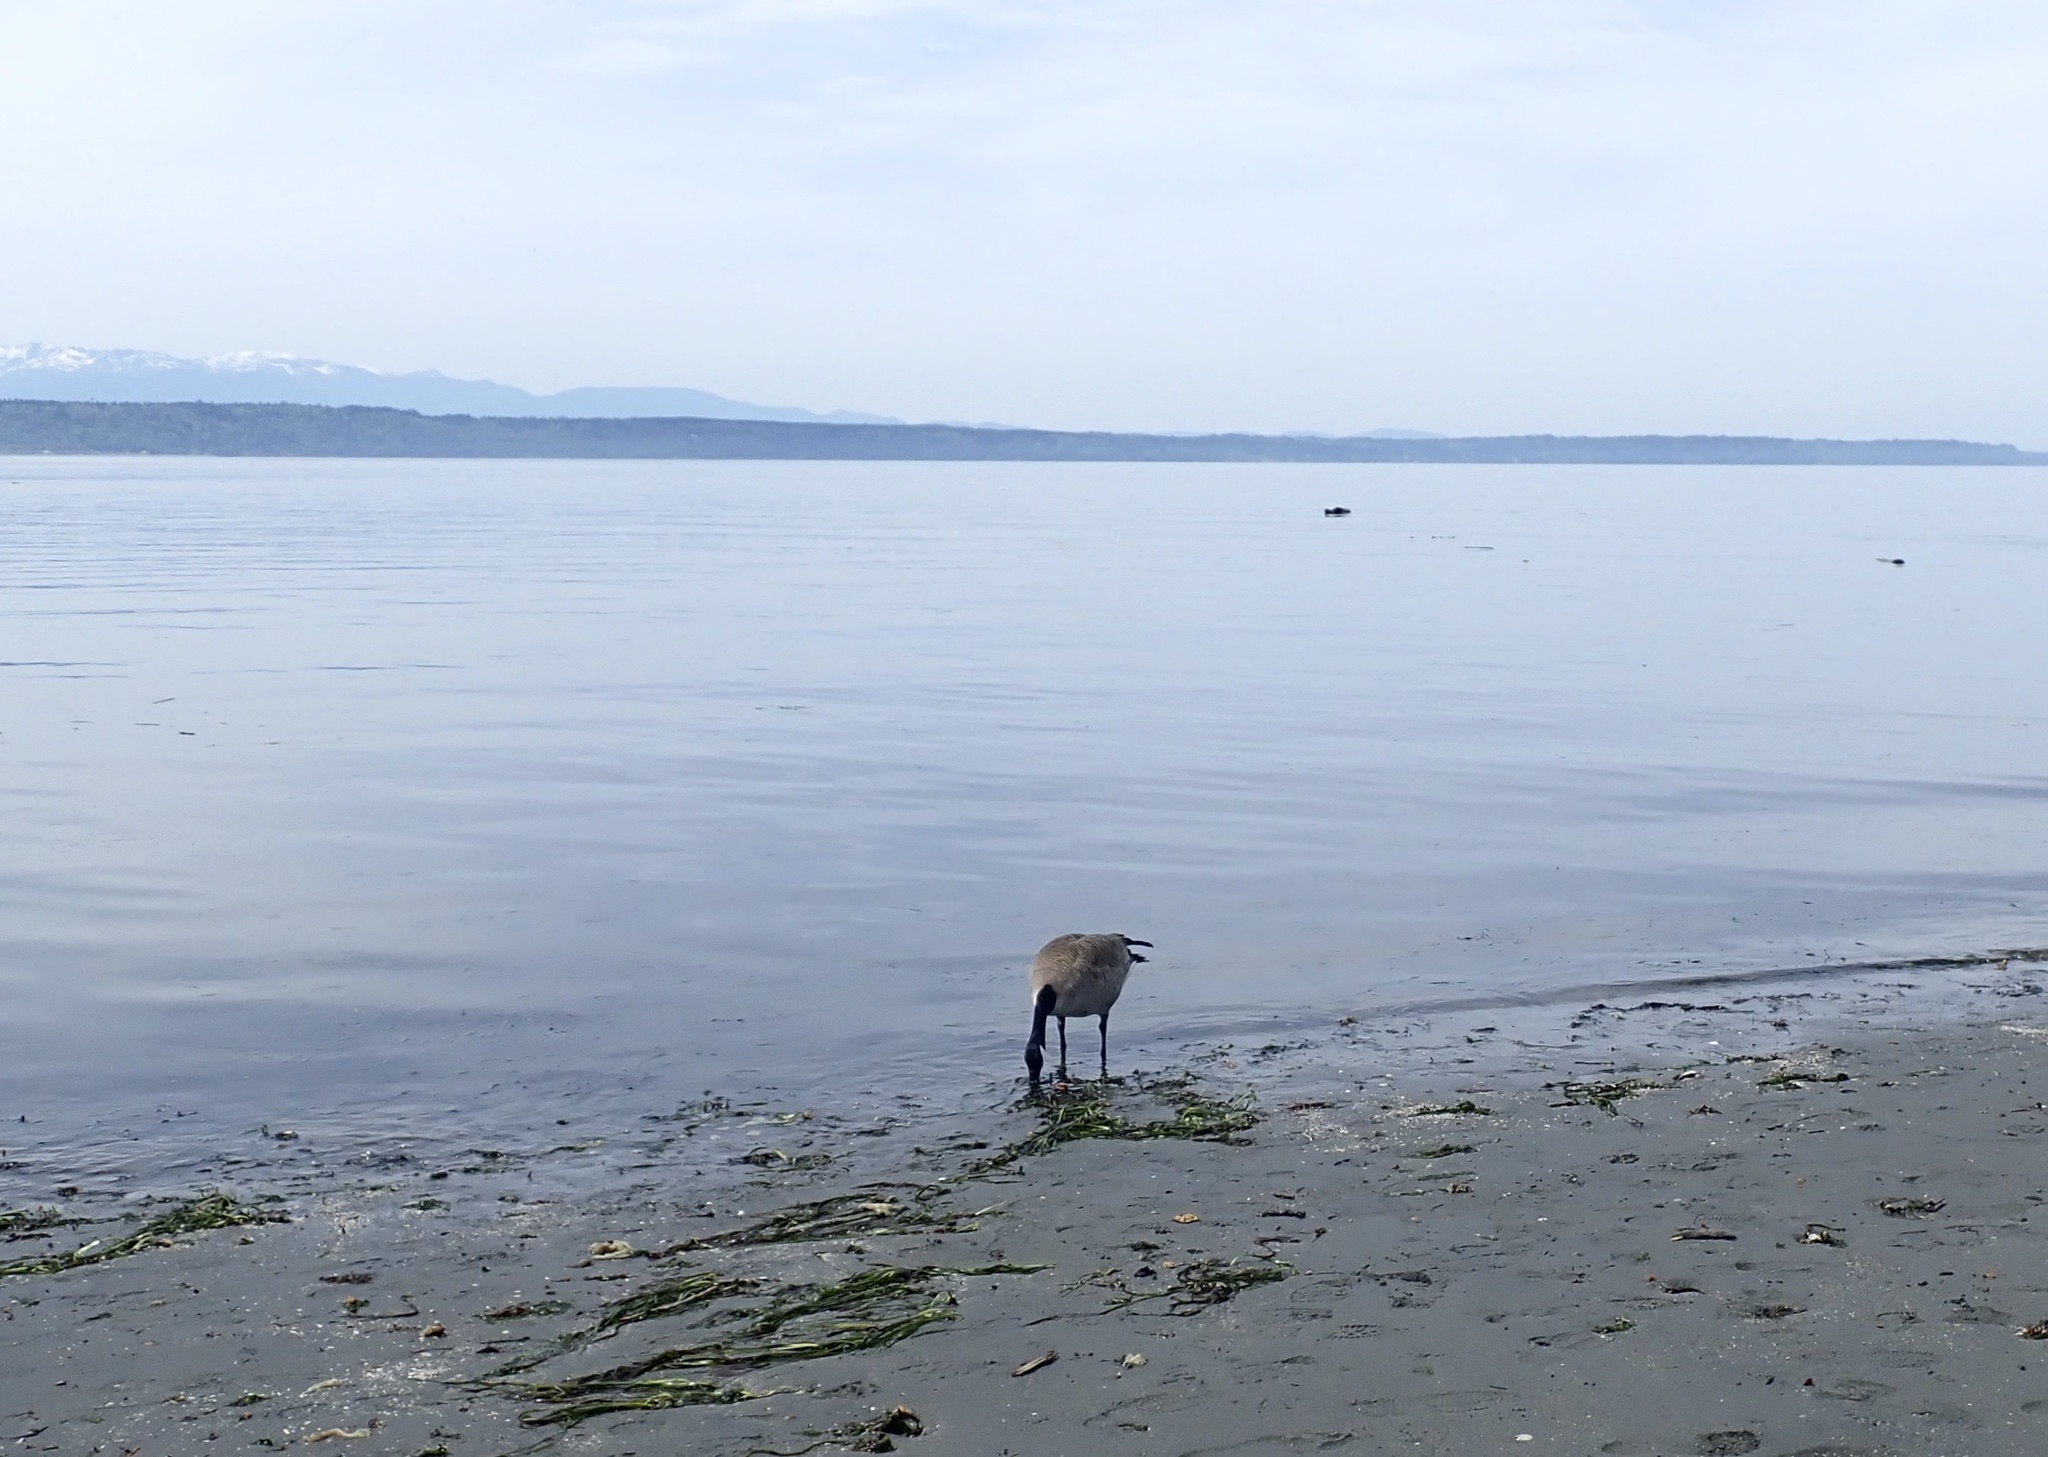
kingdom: Animalia
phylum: Chordata
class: Aves
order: Anseriformes
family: Anatidae
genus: Branta
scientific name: Branta canadensis
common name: Canada goose
